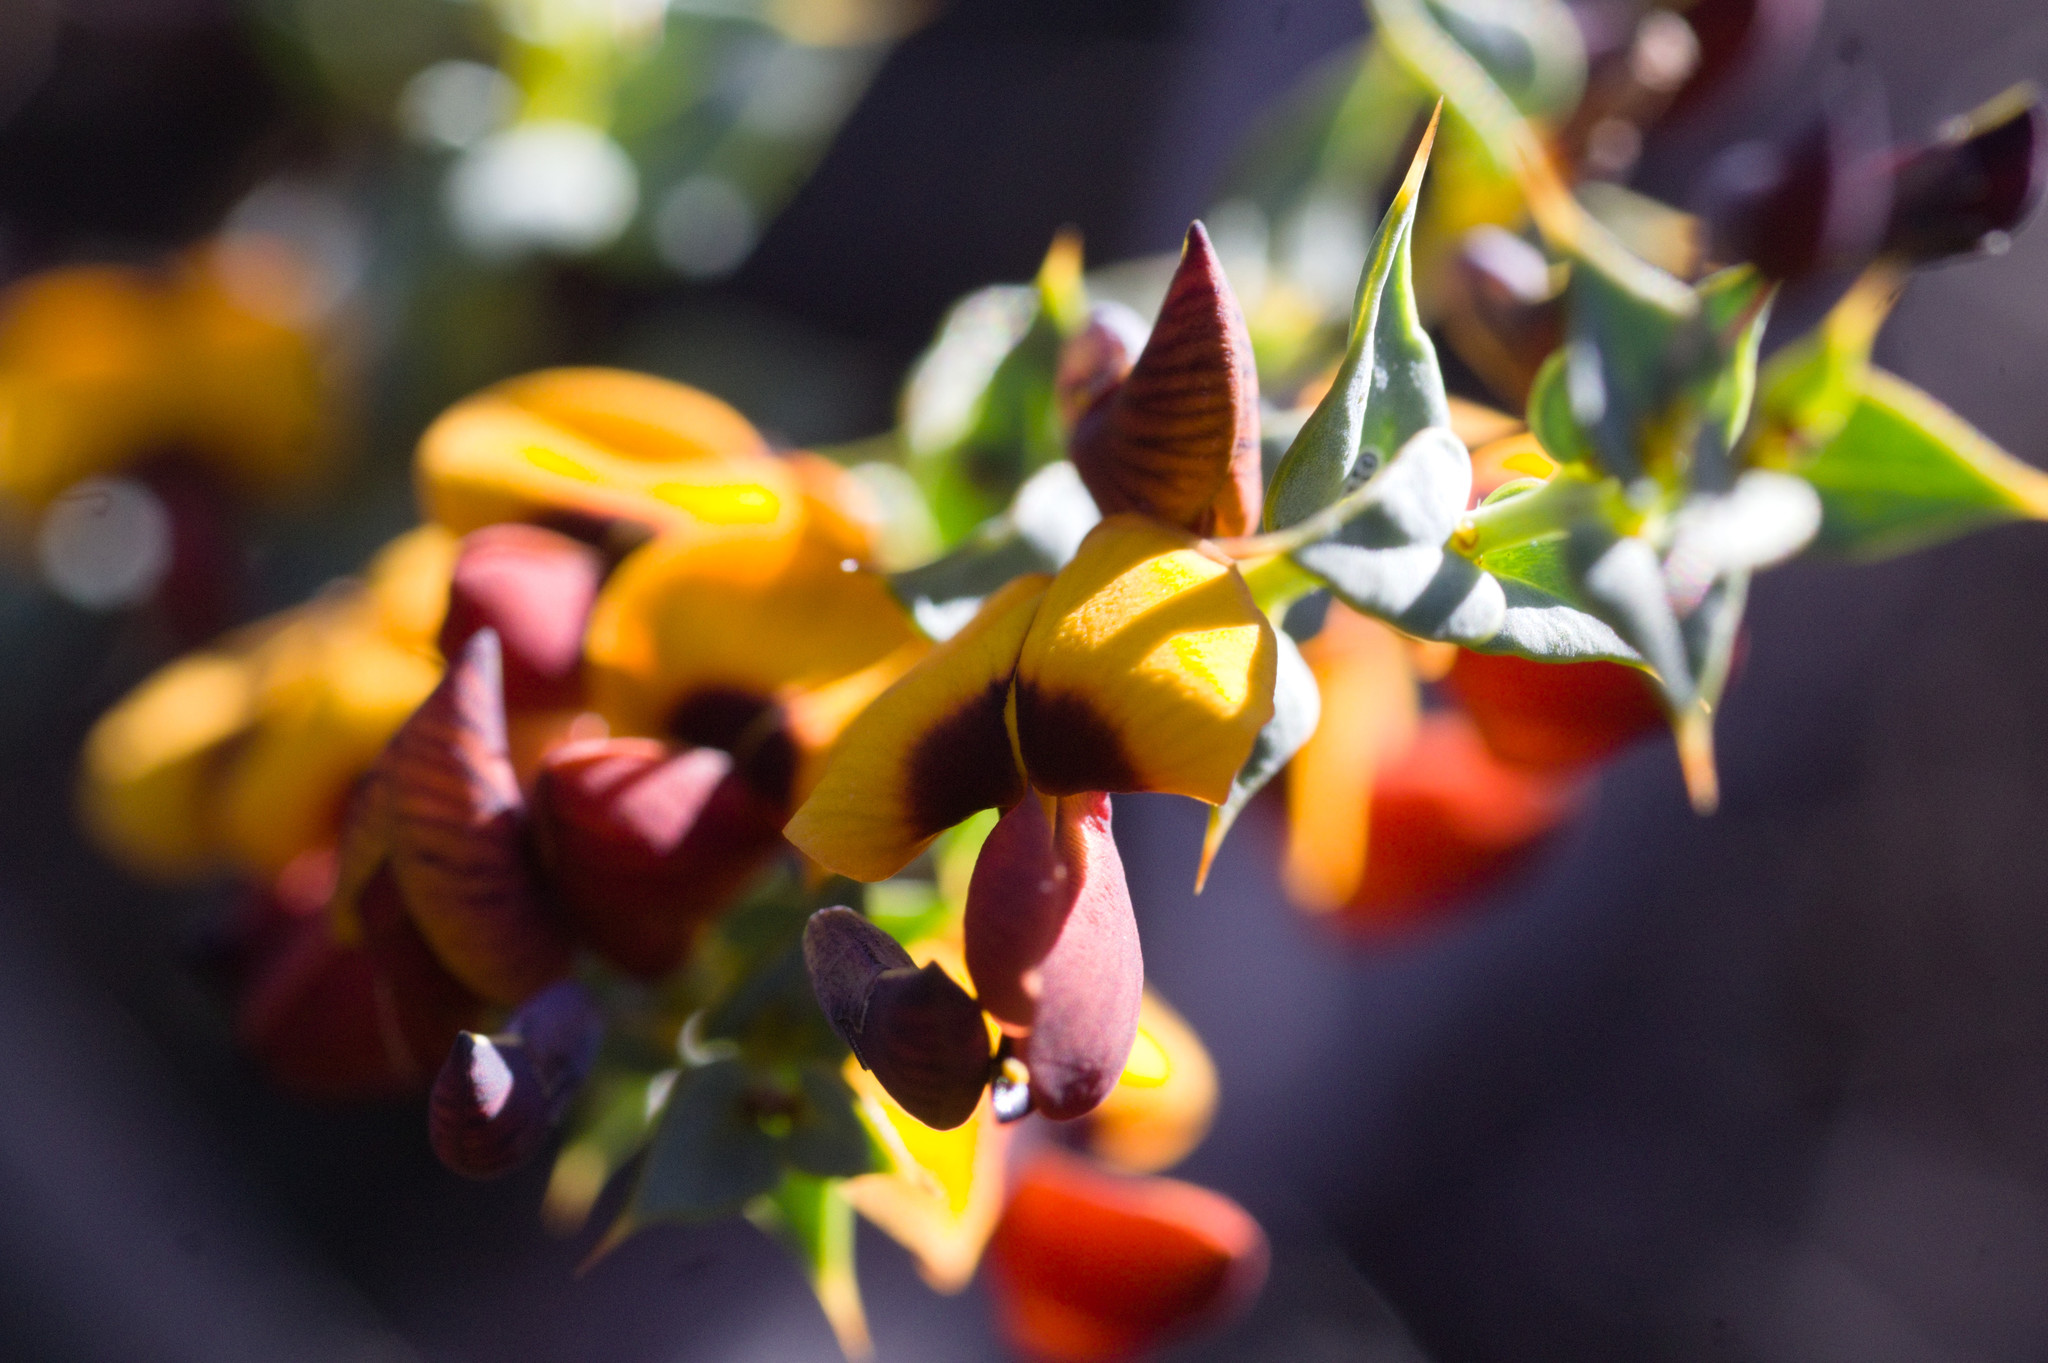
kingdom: Plantae
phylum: Tracheophyta
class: Magnoliopsida
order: Fabales
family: Fabaceae
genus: Daviesia
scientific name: Daviesia cardiophylla
